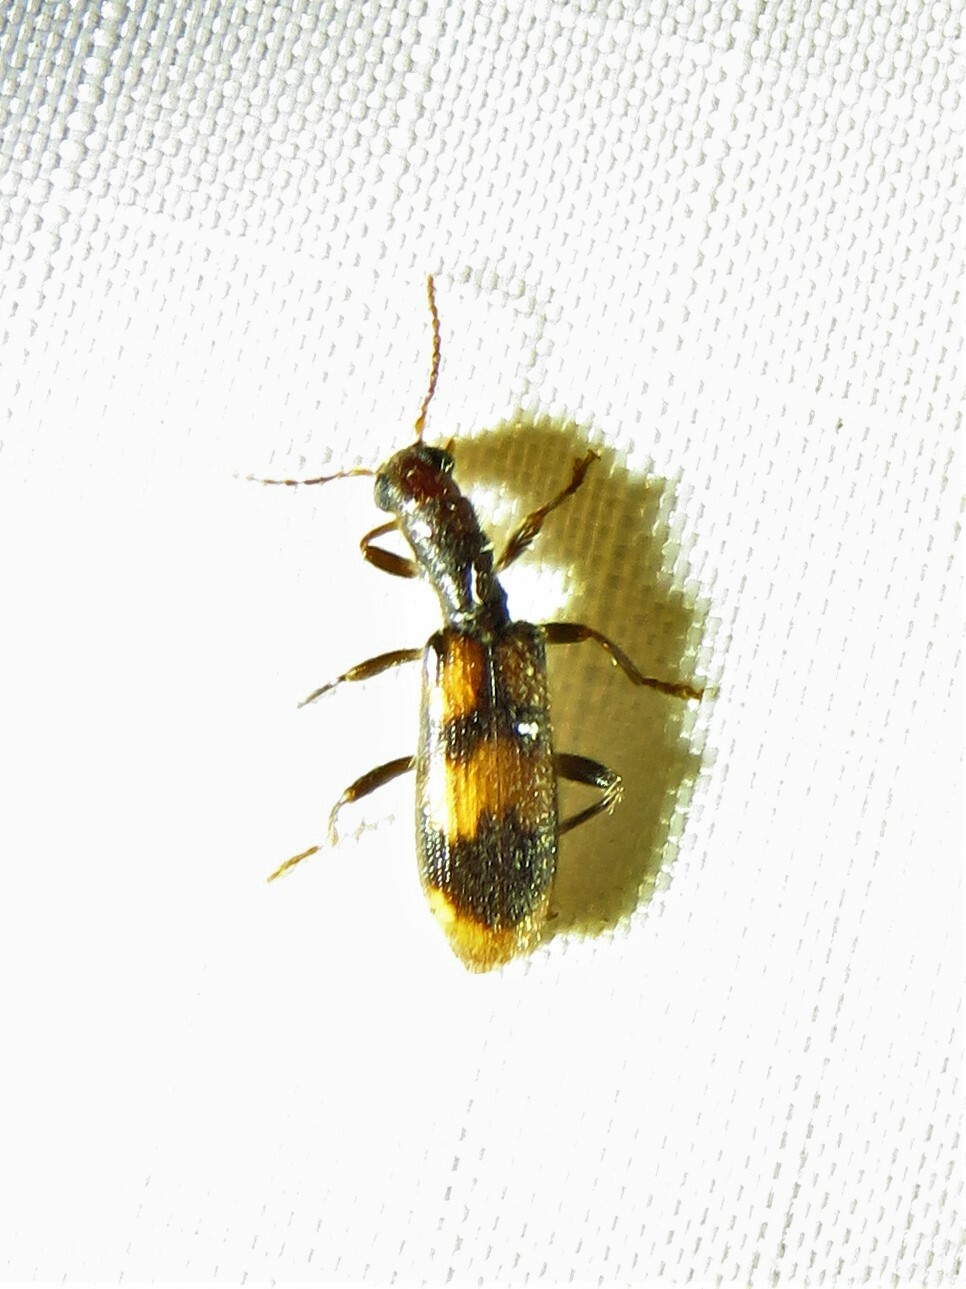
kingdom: Animalia
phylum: Arthropoda
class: Insecta
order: Coleoptera
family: Cleridae
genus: Cymatodera
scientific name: Cymatodera sirpata
